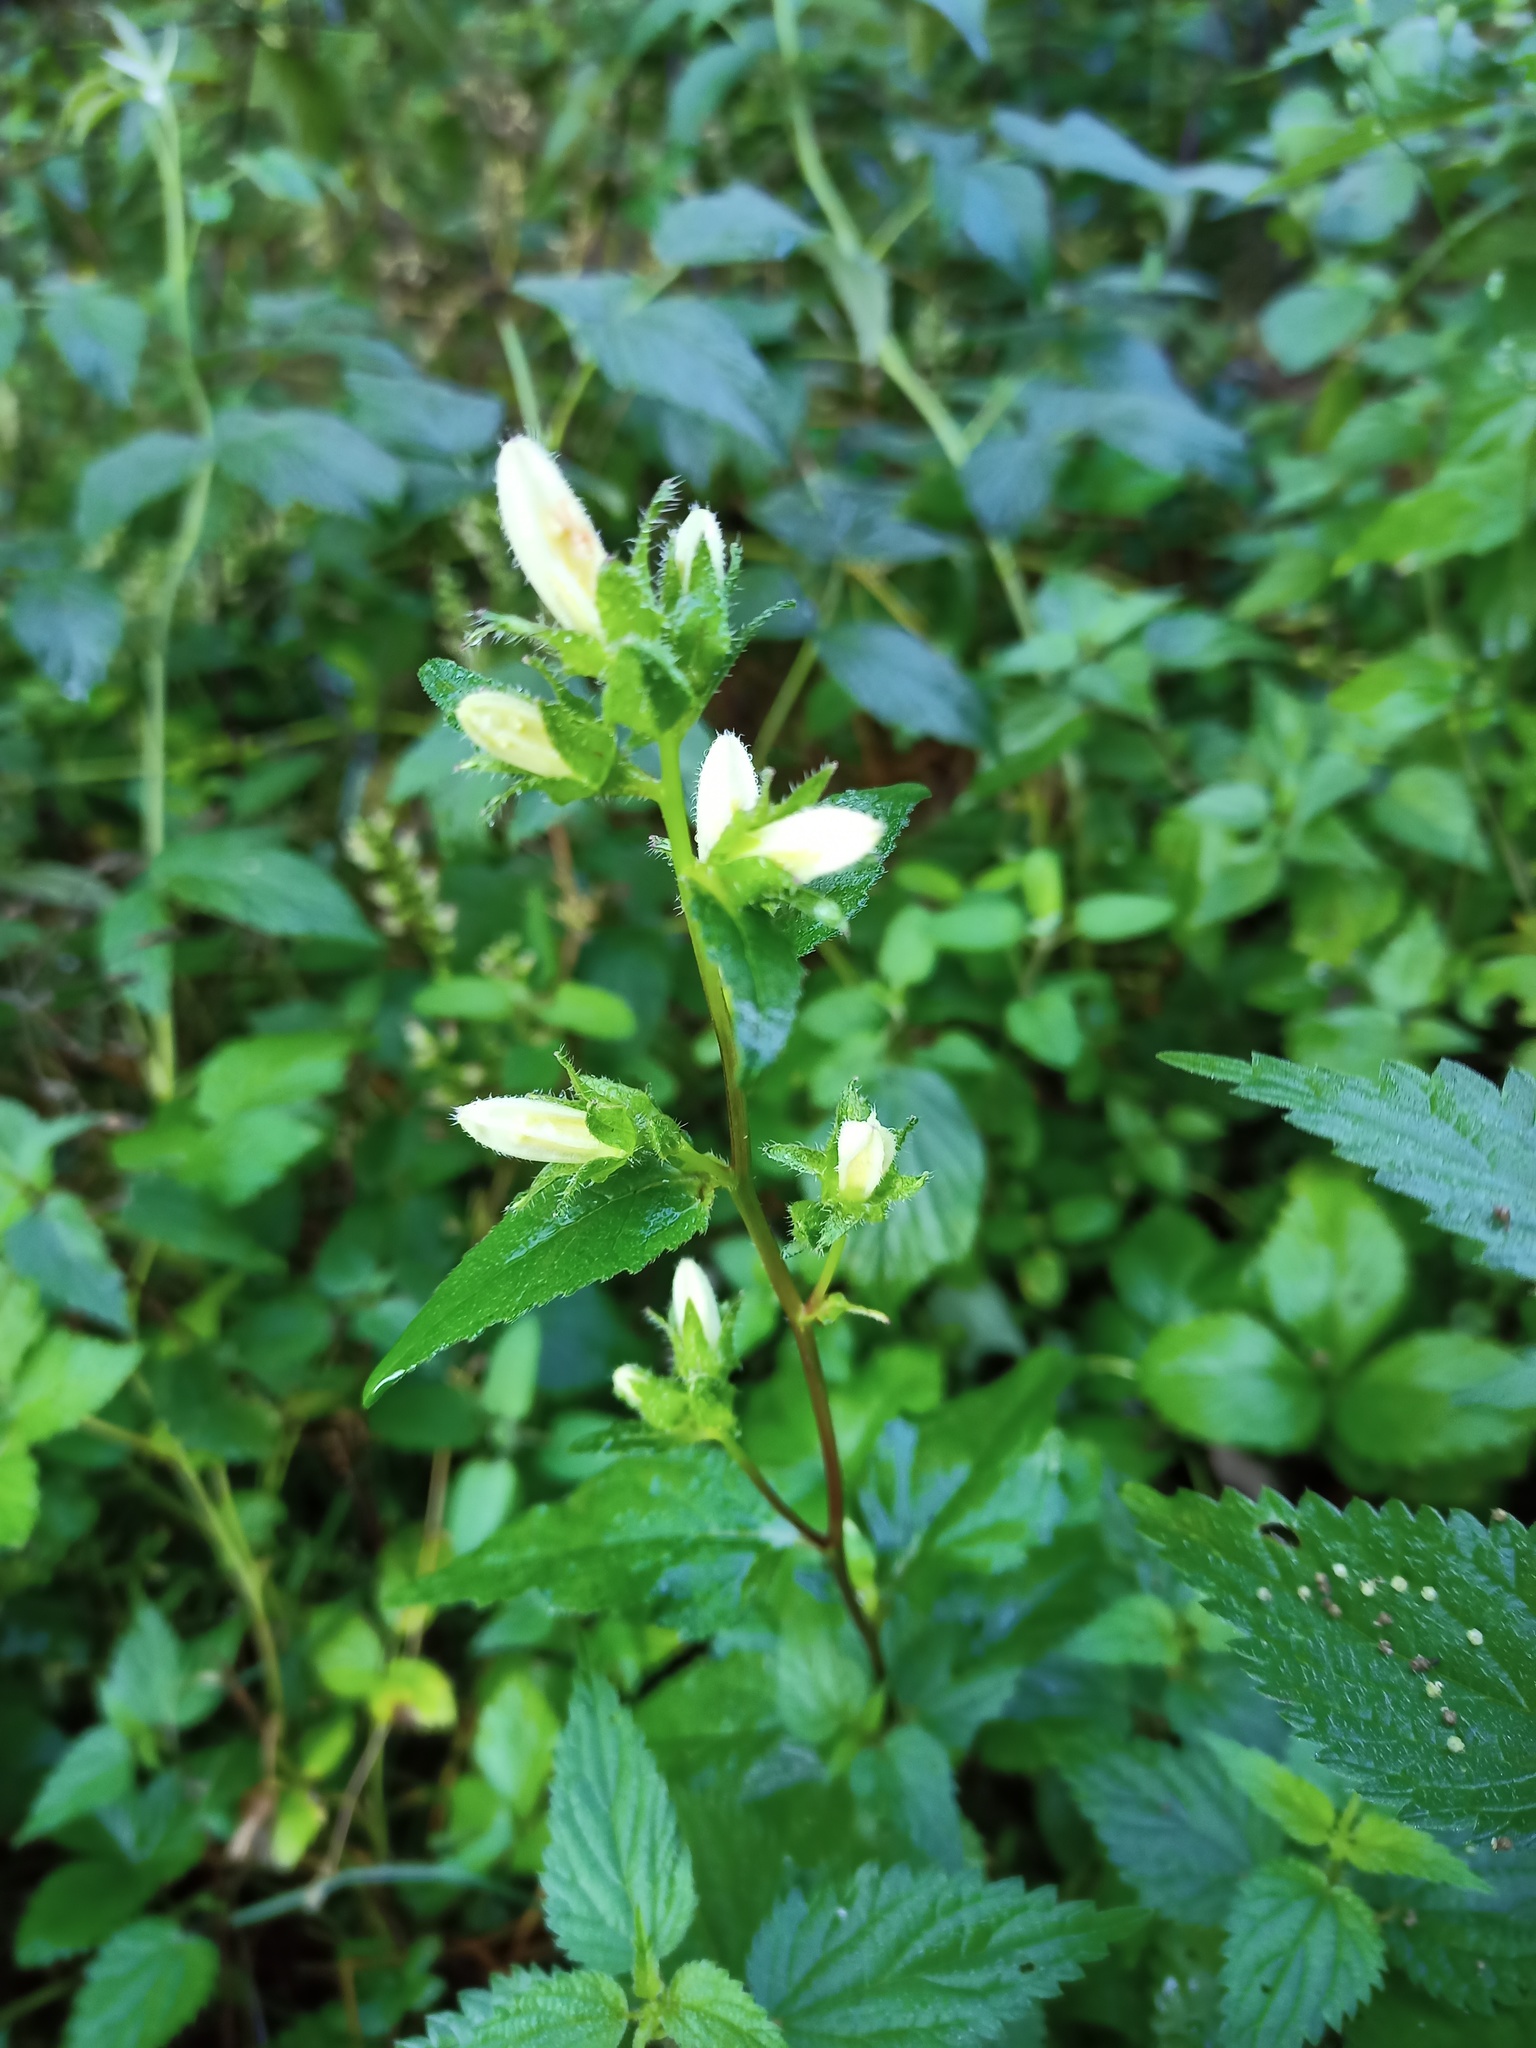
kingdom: Plantae
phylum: Tracheophyta
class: Magnoliopsida
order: Asterales
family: Campanulaceae
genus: Campanula
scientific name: Campanula trachelium
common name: Nettle-leaved bellflower
